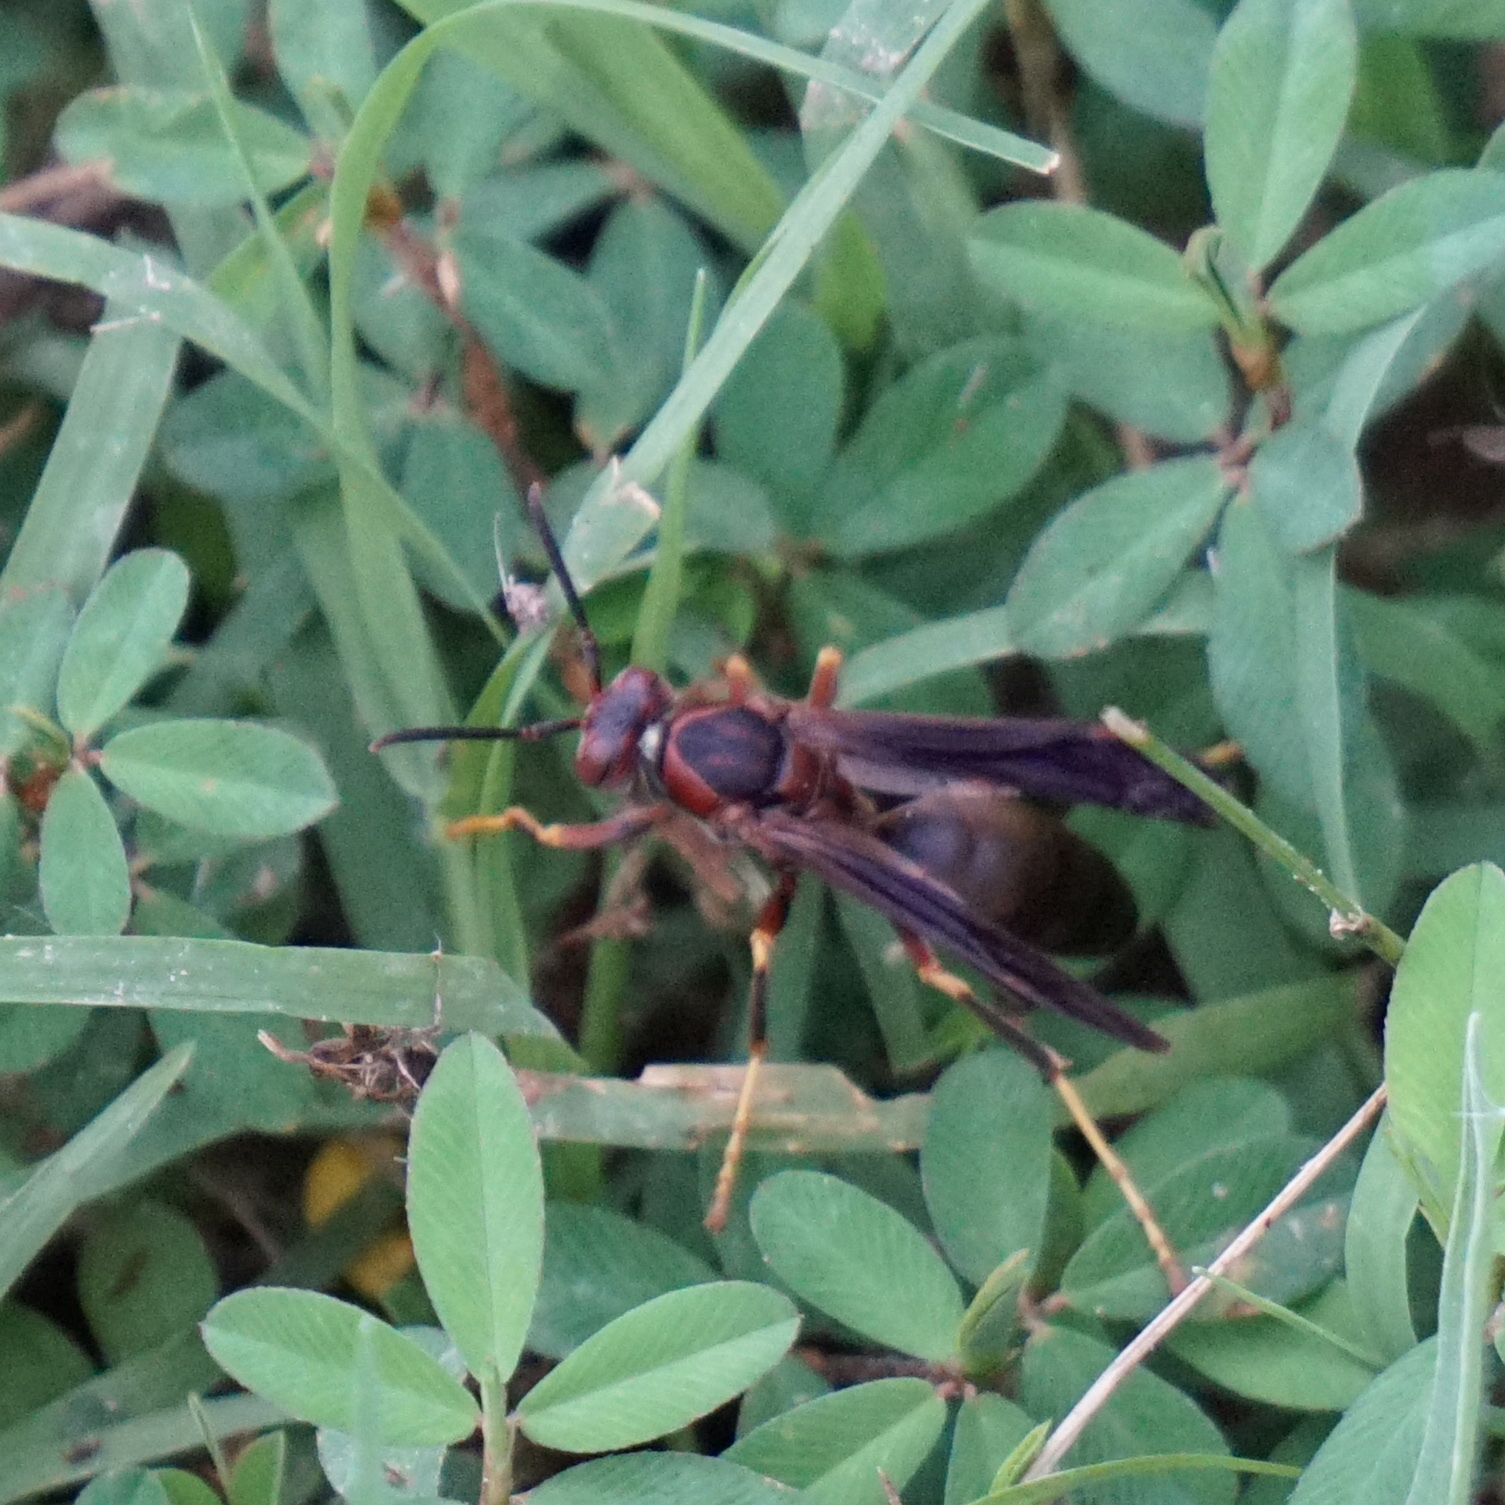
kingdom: Animalia
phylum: Arthropoda
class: Insecta
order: Hymenoptera
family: Eumenidae
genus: Polistes
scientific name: Polistes metricus
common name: Metric paper wasp
